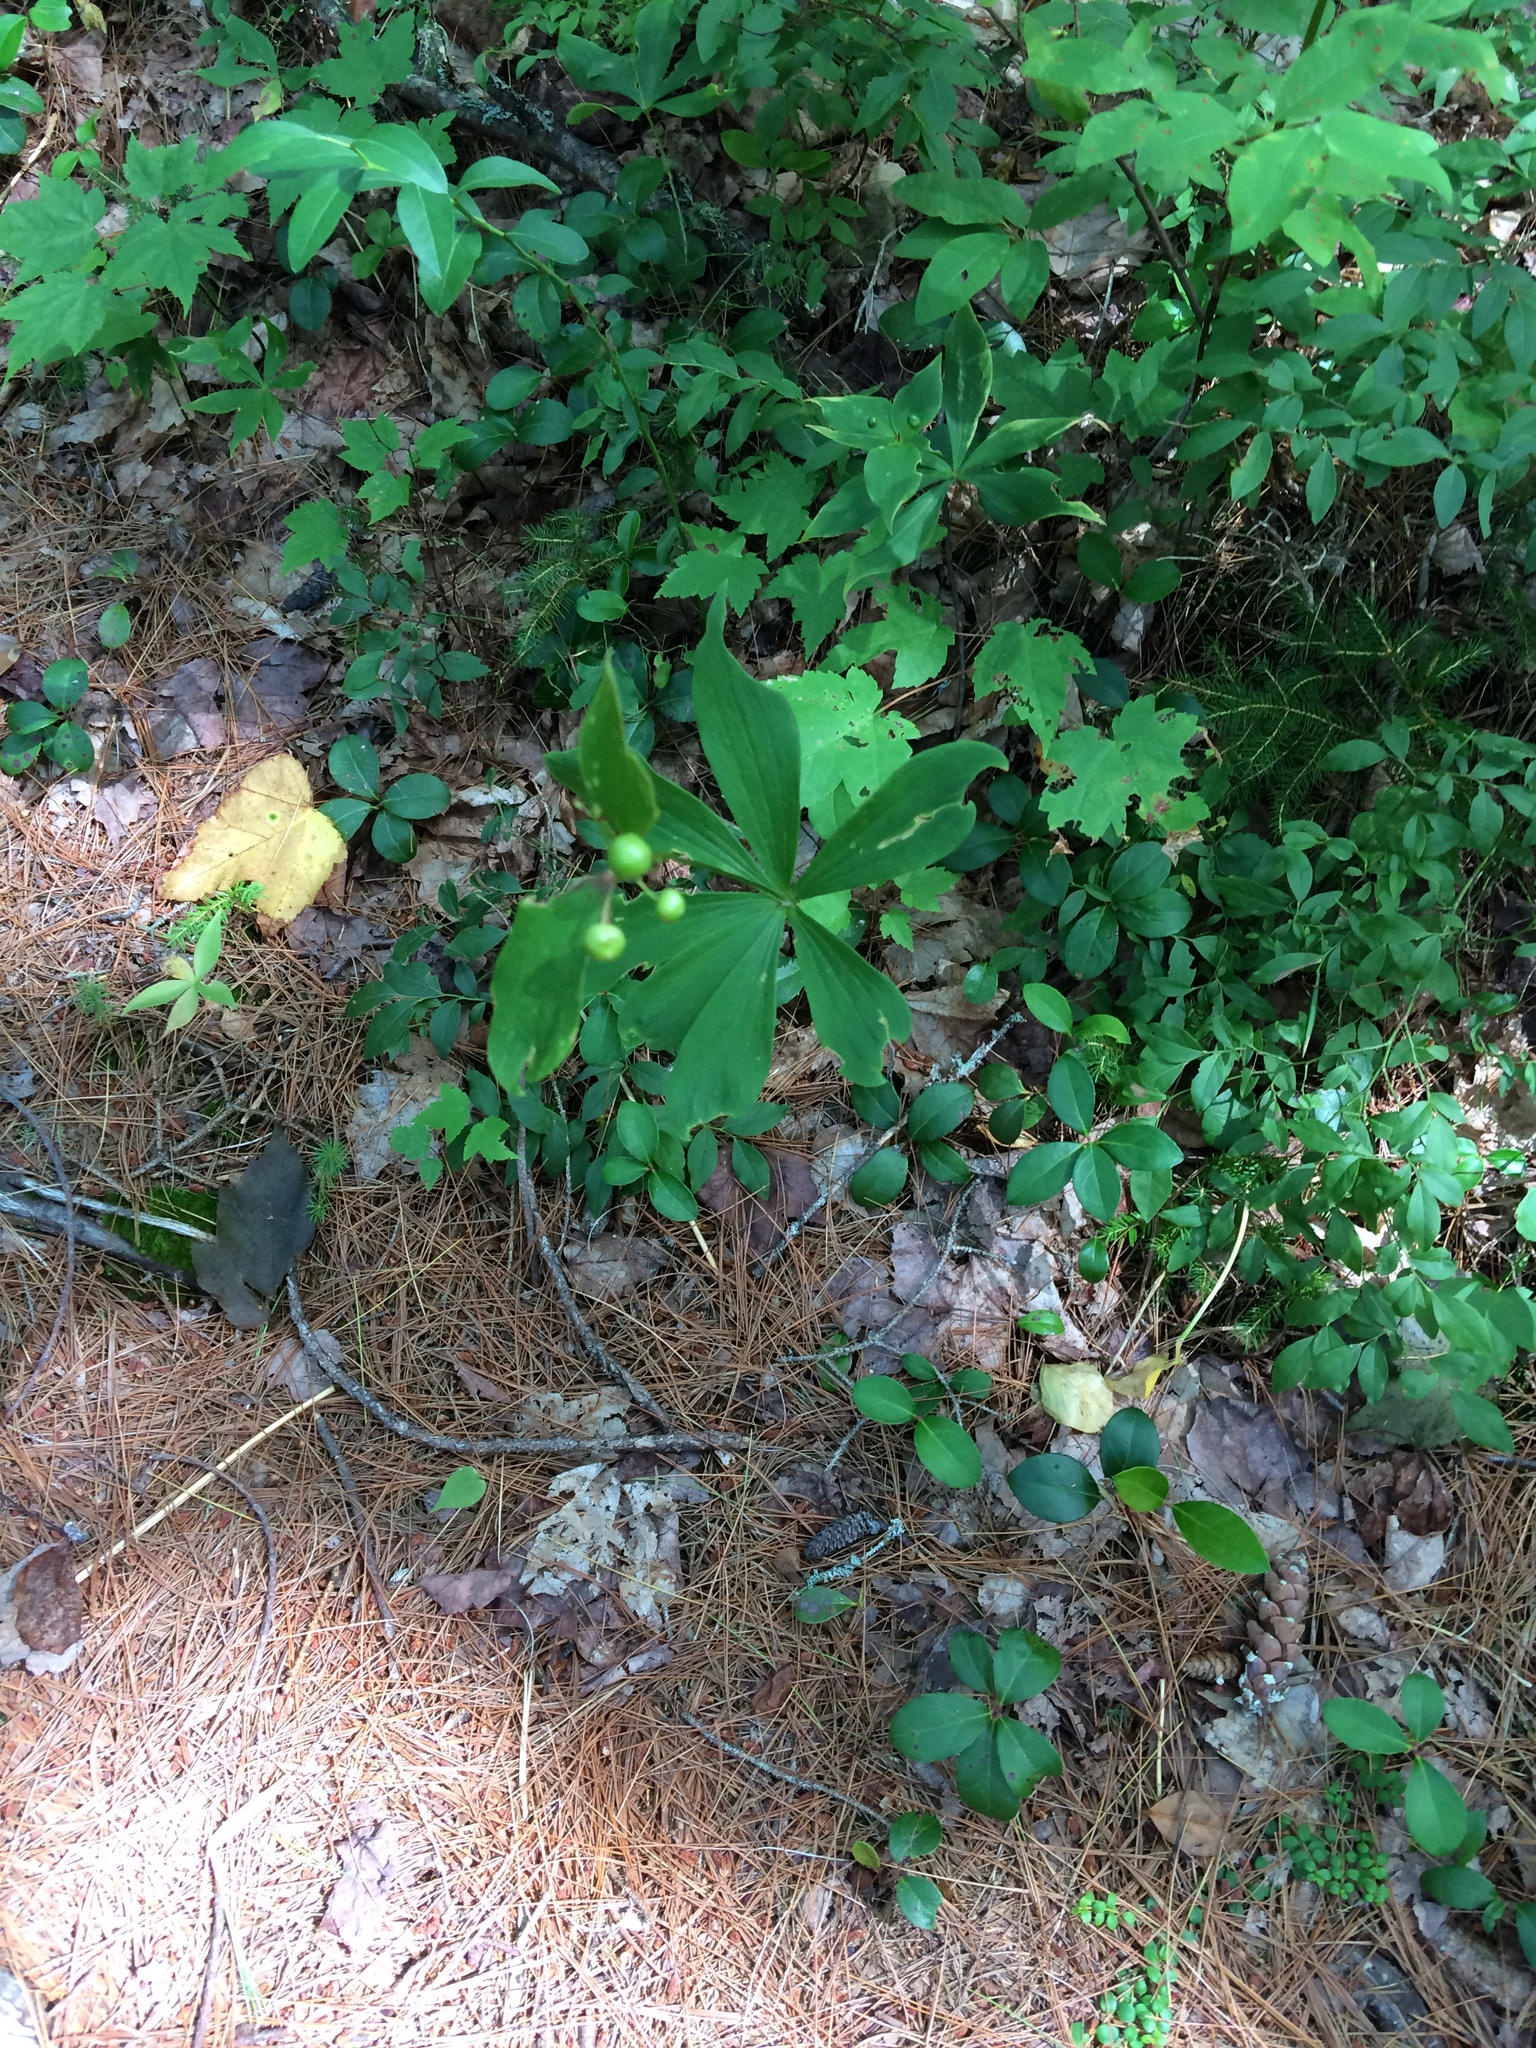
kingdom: Plantae
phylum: Tracheophyta
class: Liliopsida
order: Liliales
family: Liliaceae
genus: Medeola
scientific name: Medeola virginiana
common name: Indian cucumber-root
